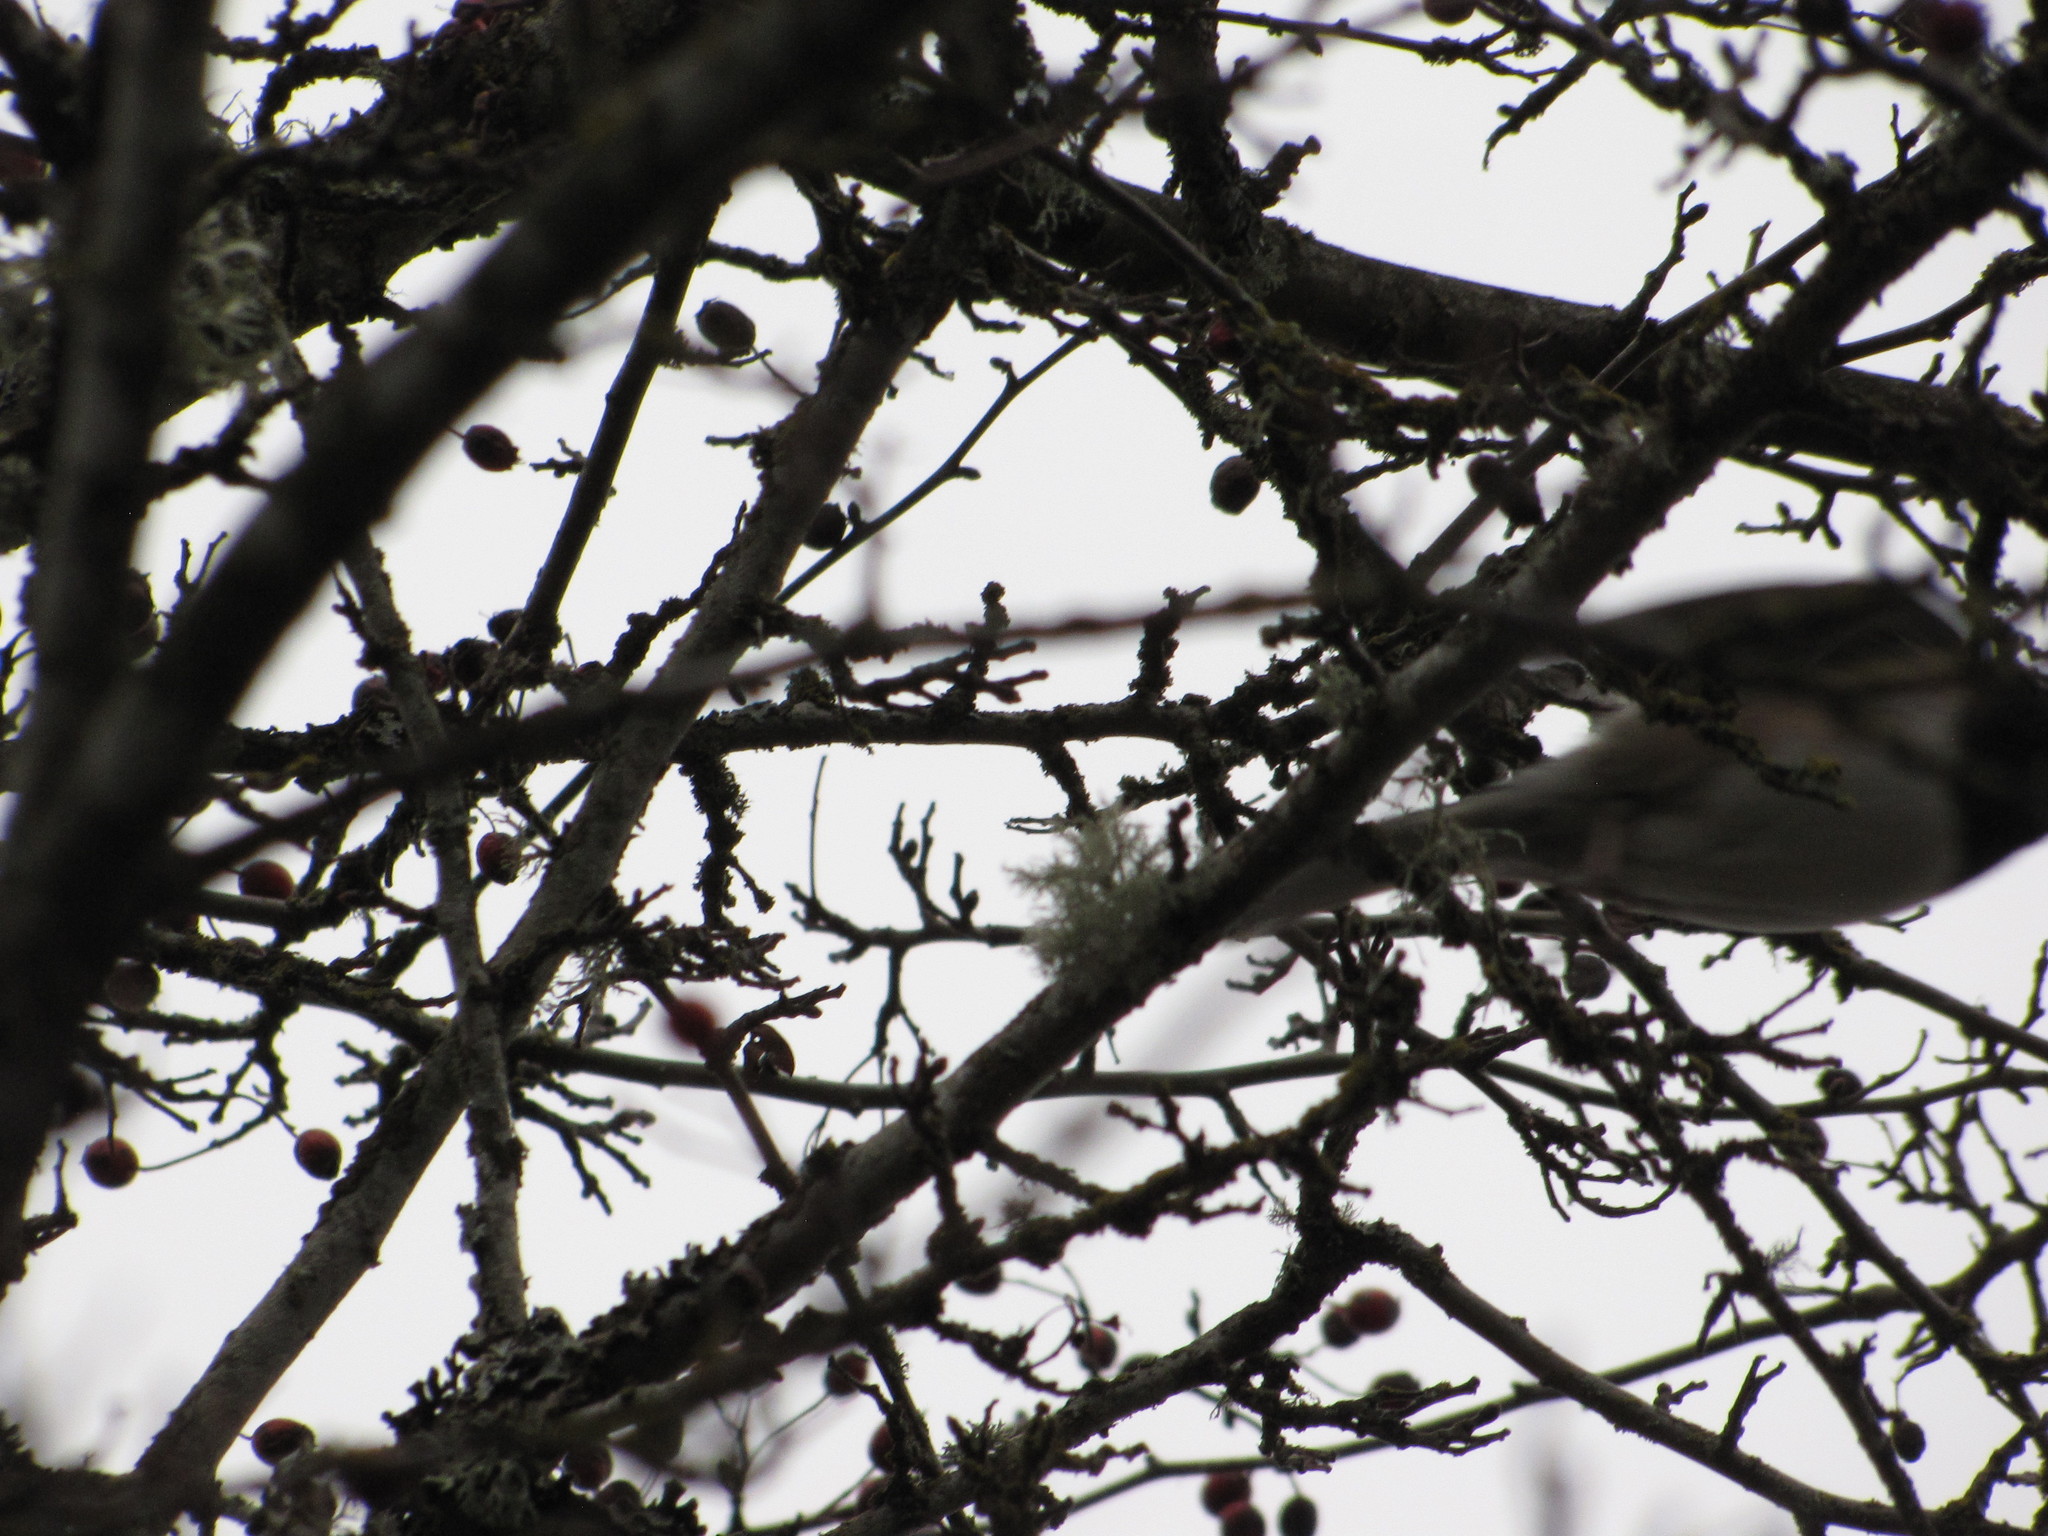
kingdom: Animalia
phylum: Chordata
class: Aves
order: Passeriformes
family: Passerellidae
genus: Junco
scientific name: Junco hyemalis
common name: Dark-eyed junco
